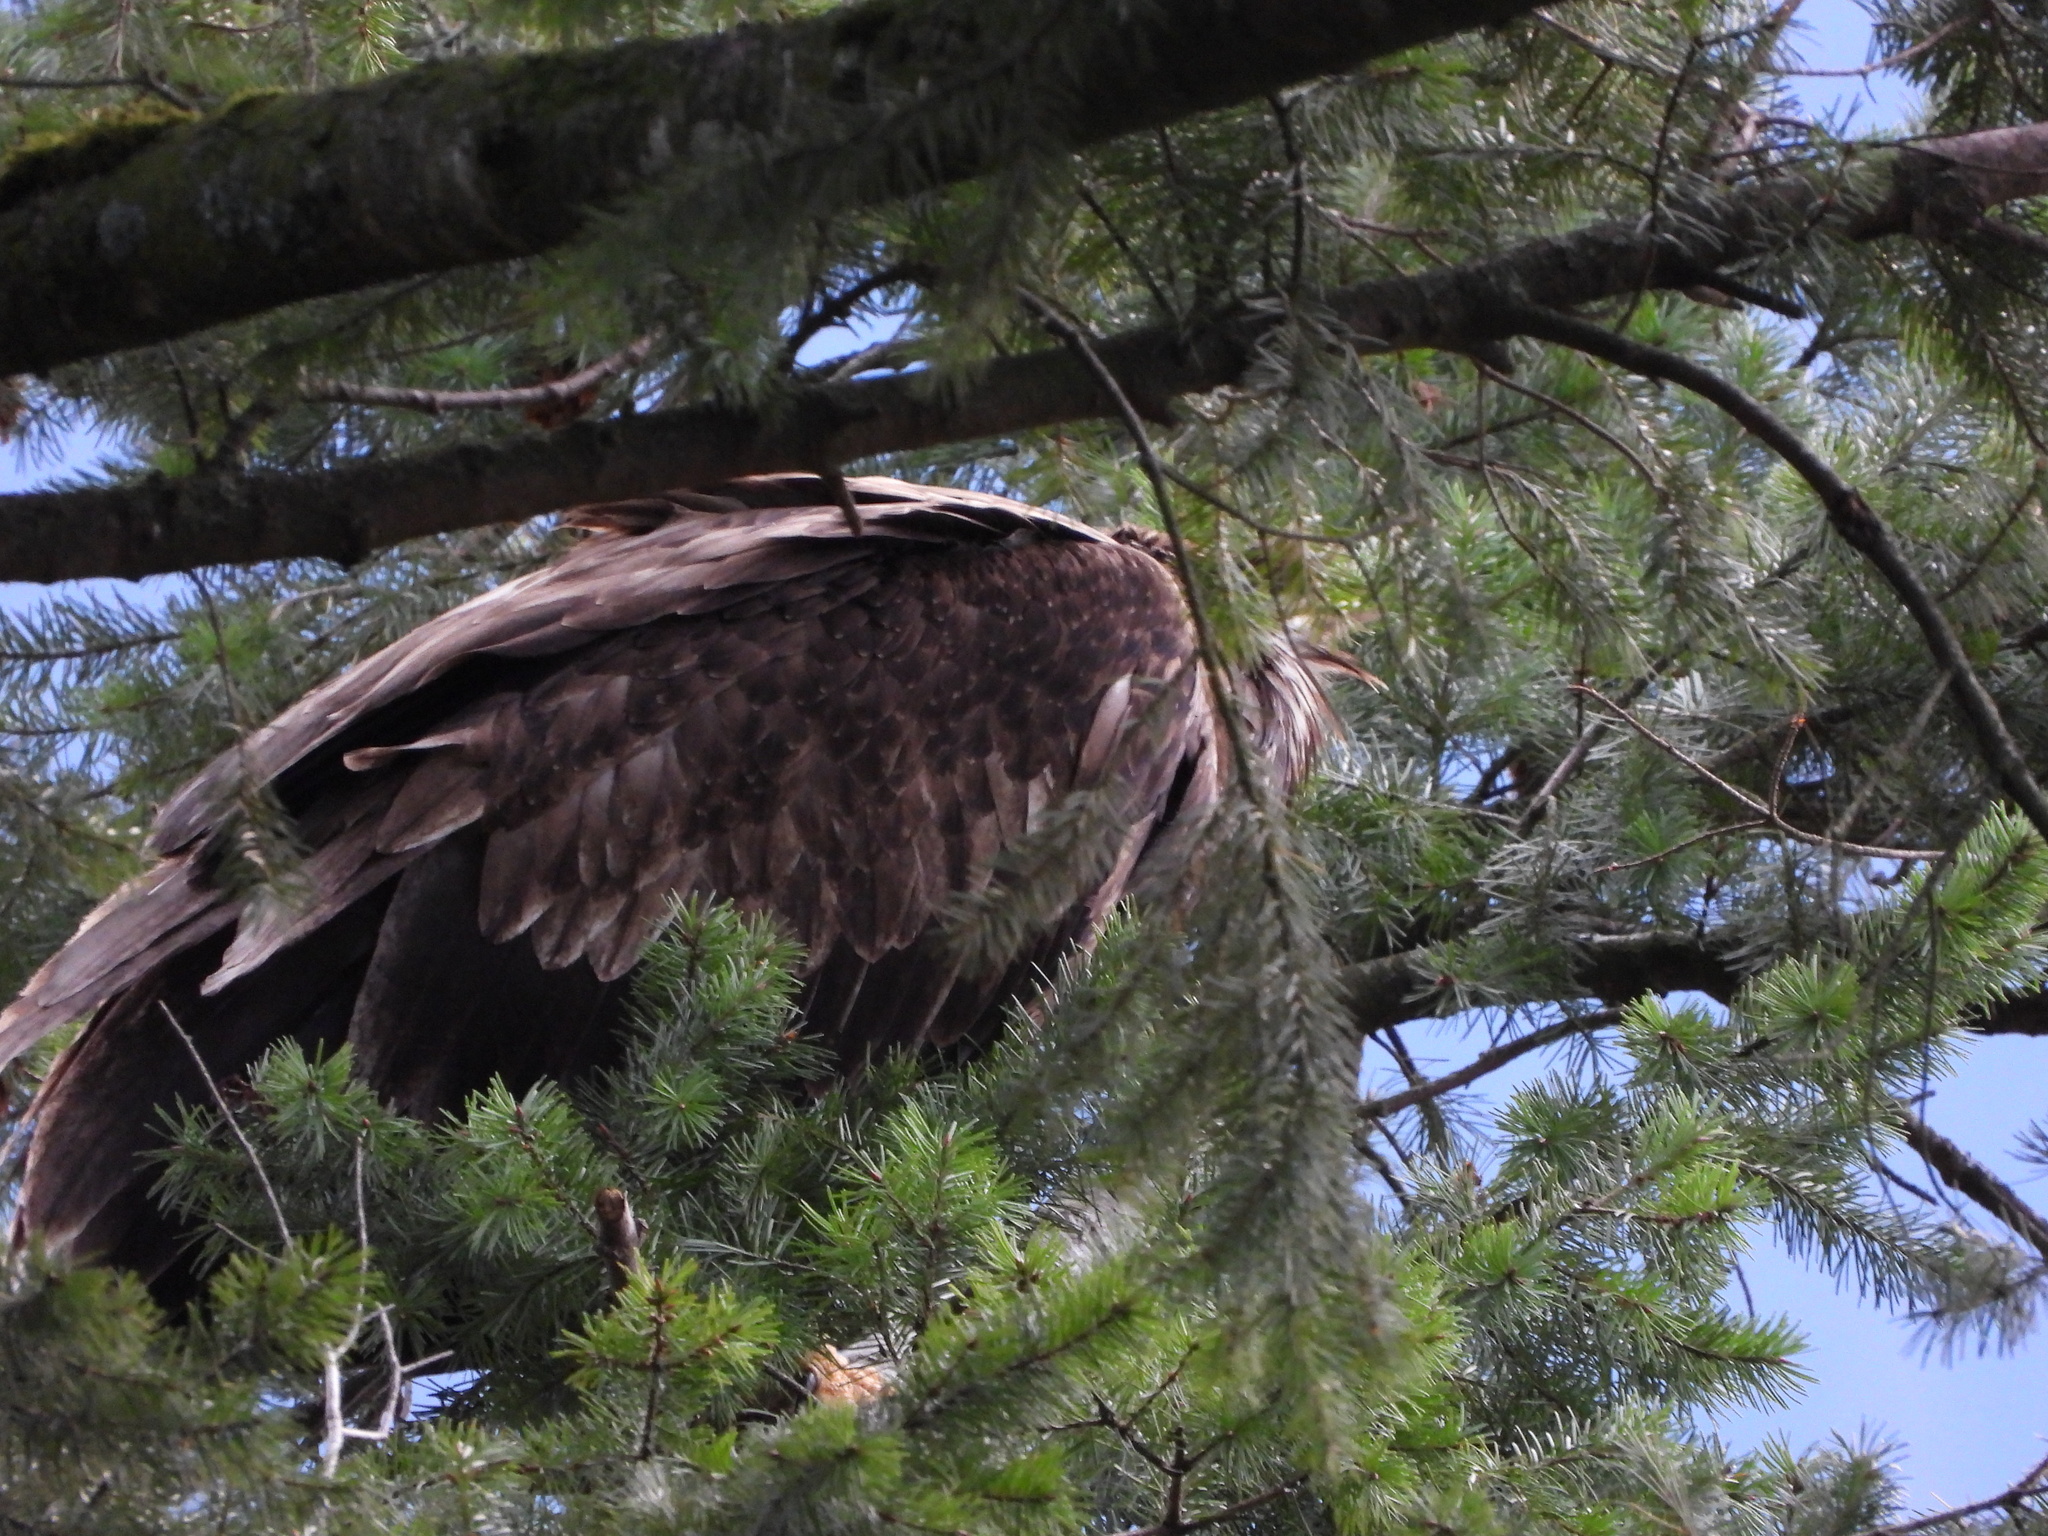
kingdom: Animalia
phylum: Chordata
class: Aves
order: Accipitriformes
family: Accipitridae
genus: Haliaeetus
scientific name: Haliaeetus leucocephalus
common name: Bald eagle
